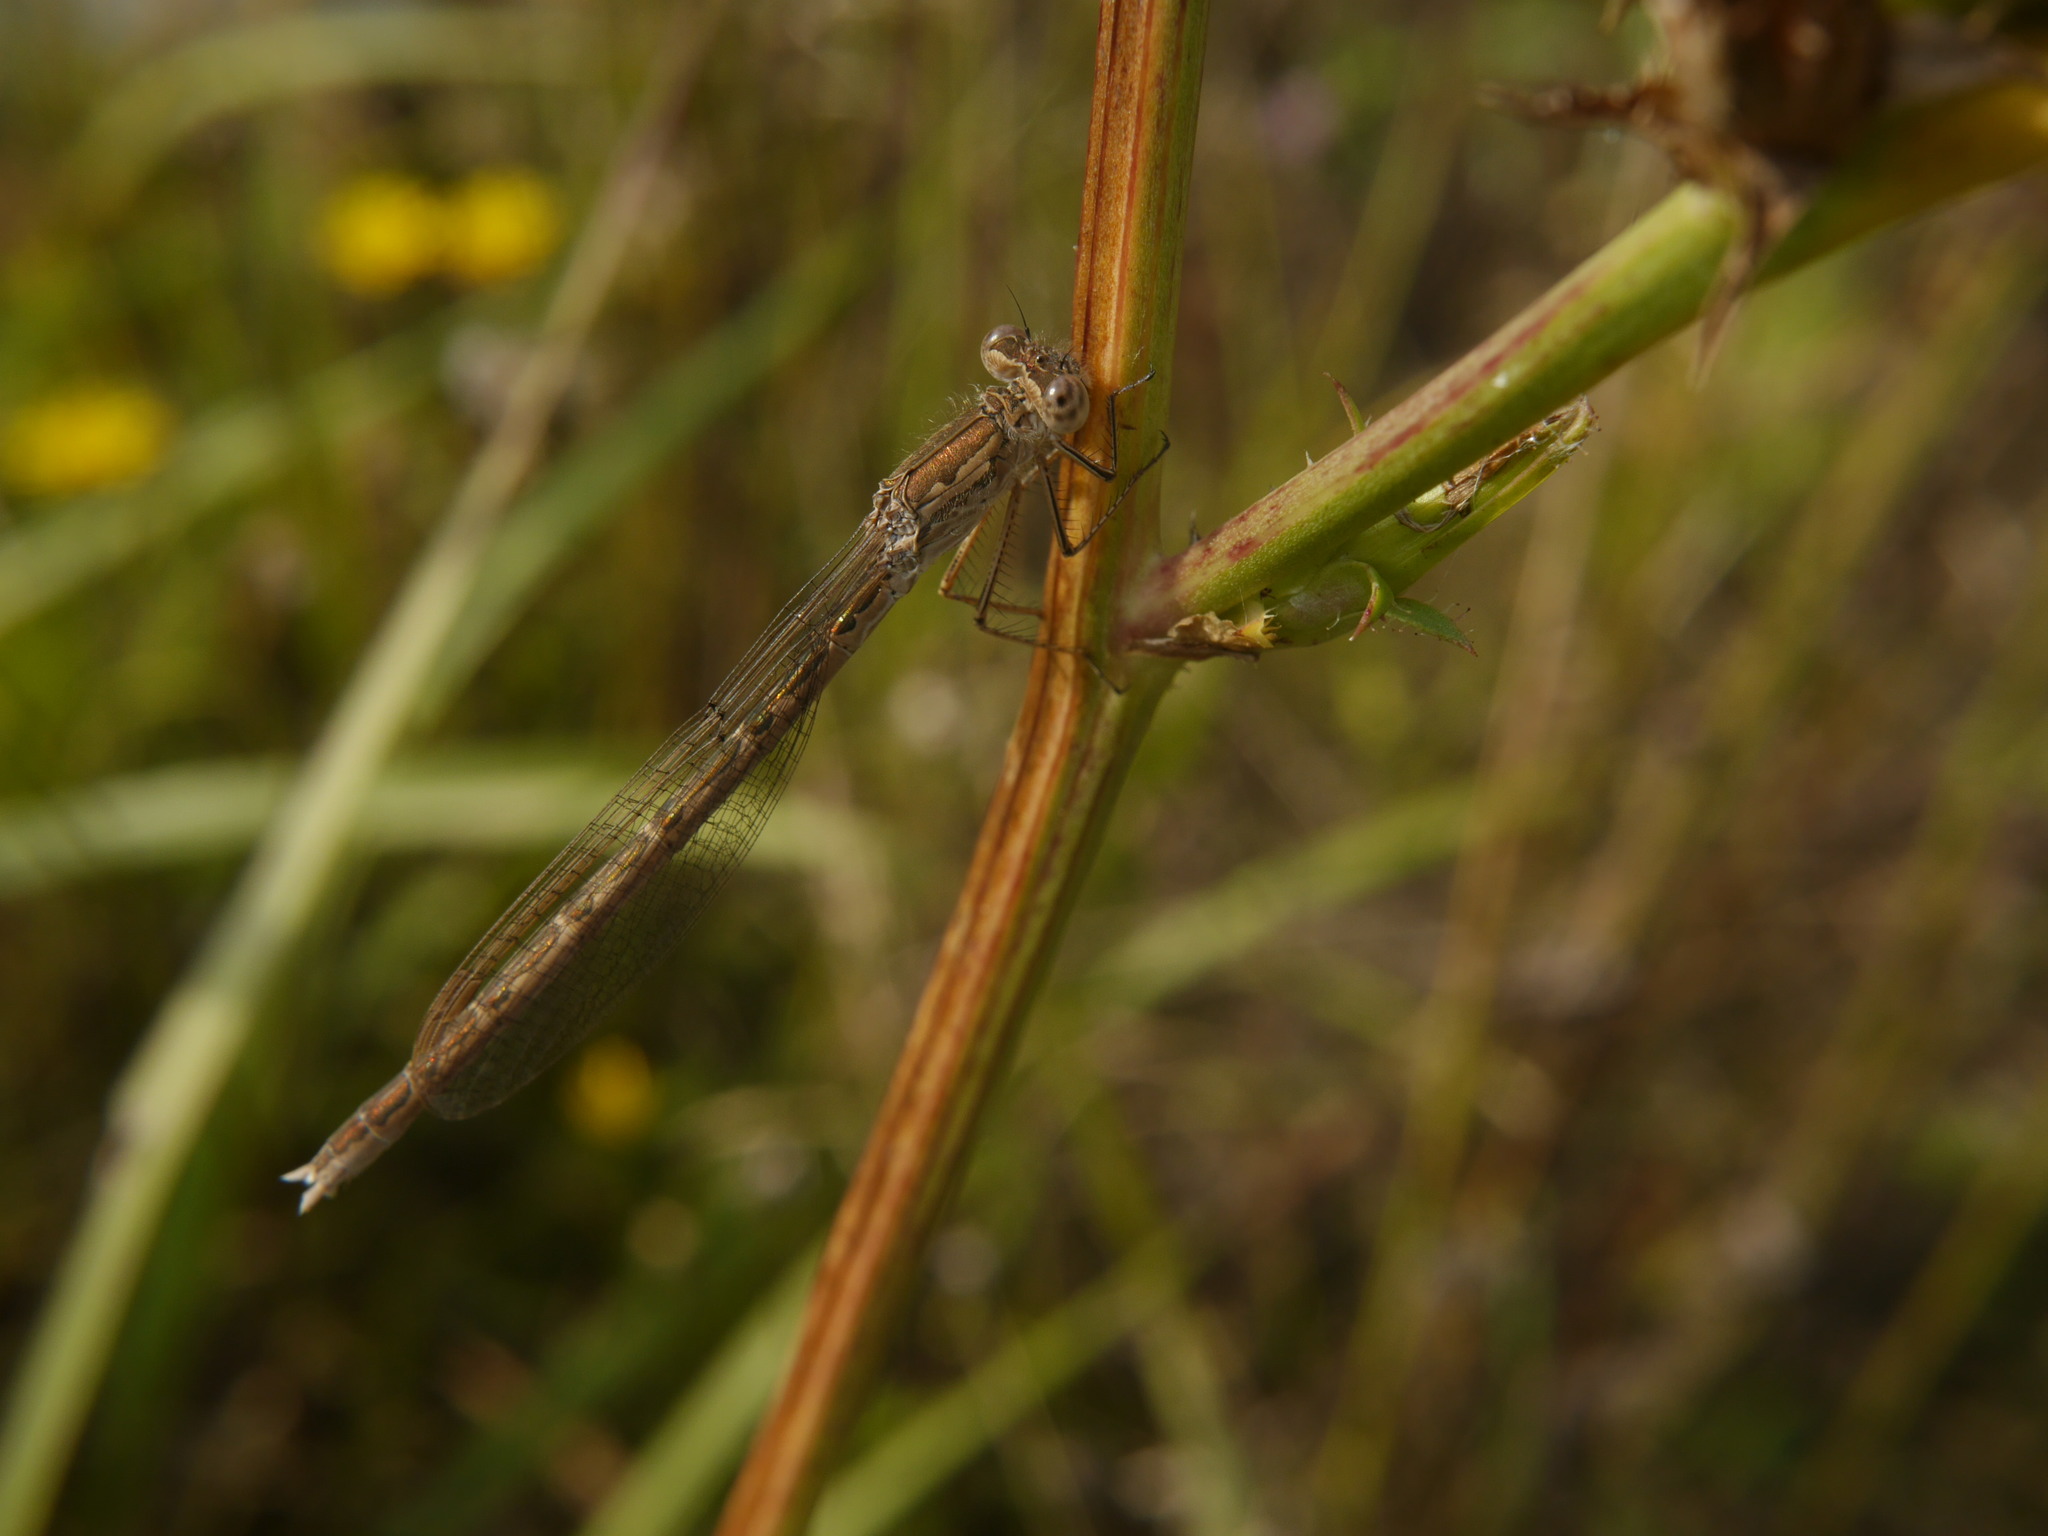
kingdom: Animalia
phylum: Arthropoda
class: Insecta
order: Odonata
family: Lestidae
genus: Sympecma
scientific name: Sympecma paedisca
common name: Siberian winter damsel
